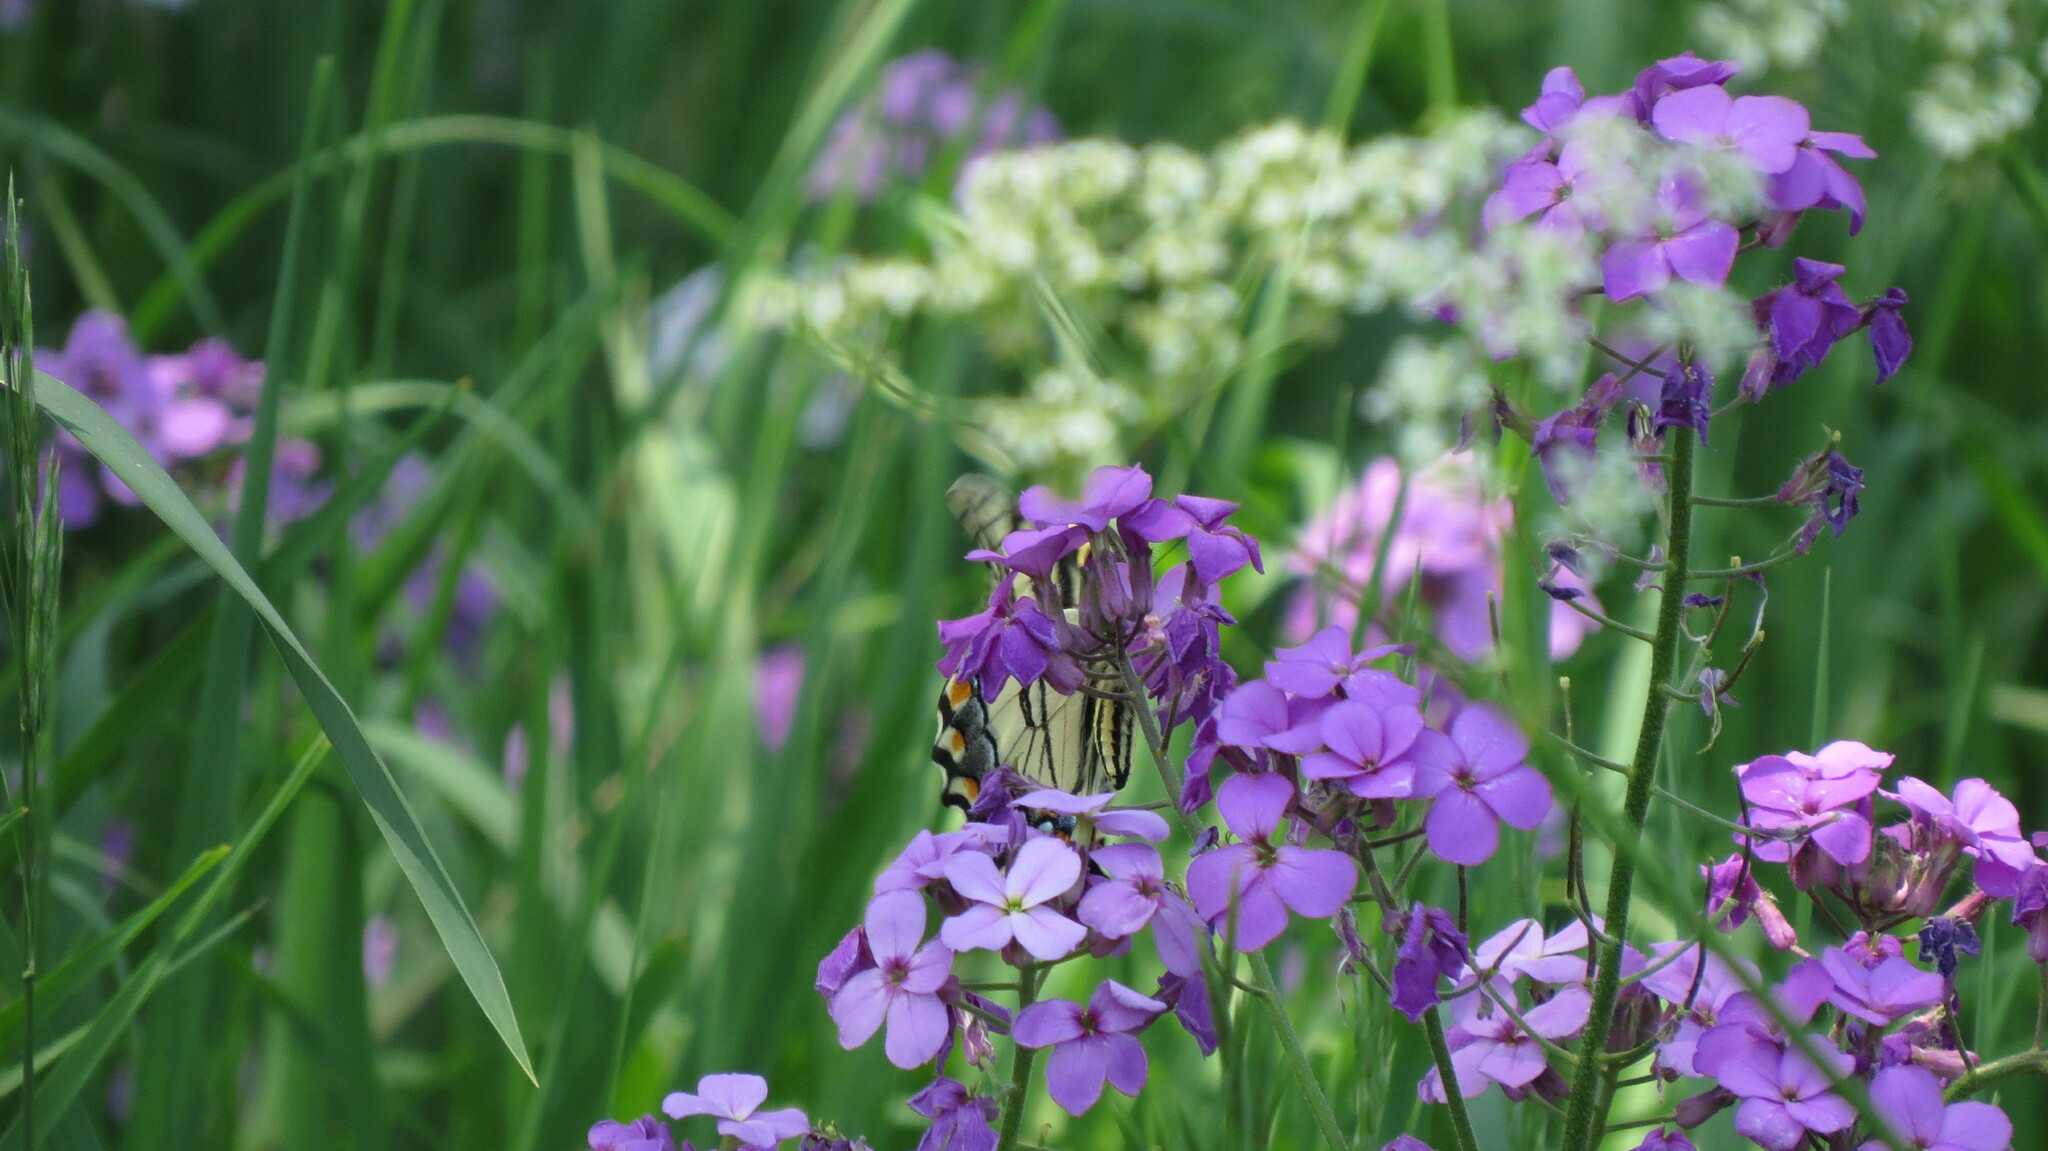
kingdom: Animalia
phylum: Arthropoda
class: Insecta
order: Lepidoptera
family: Papilionidae
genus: Papilio
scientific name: Papilio glaucus
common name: Tiger swallowtail
